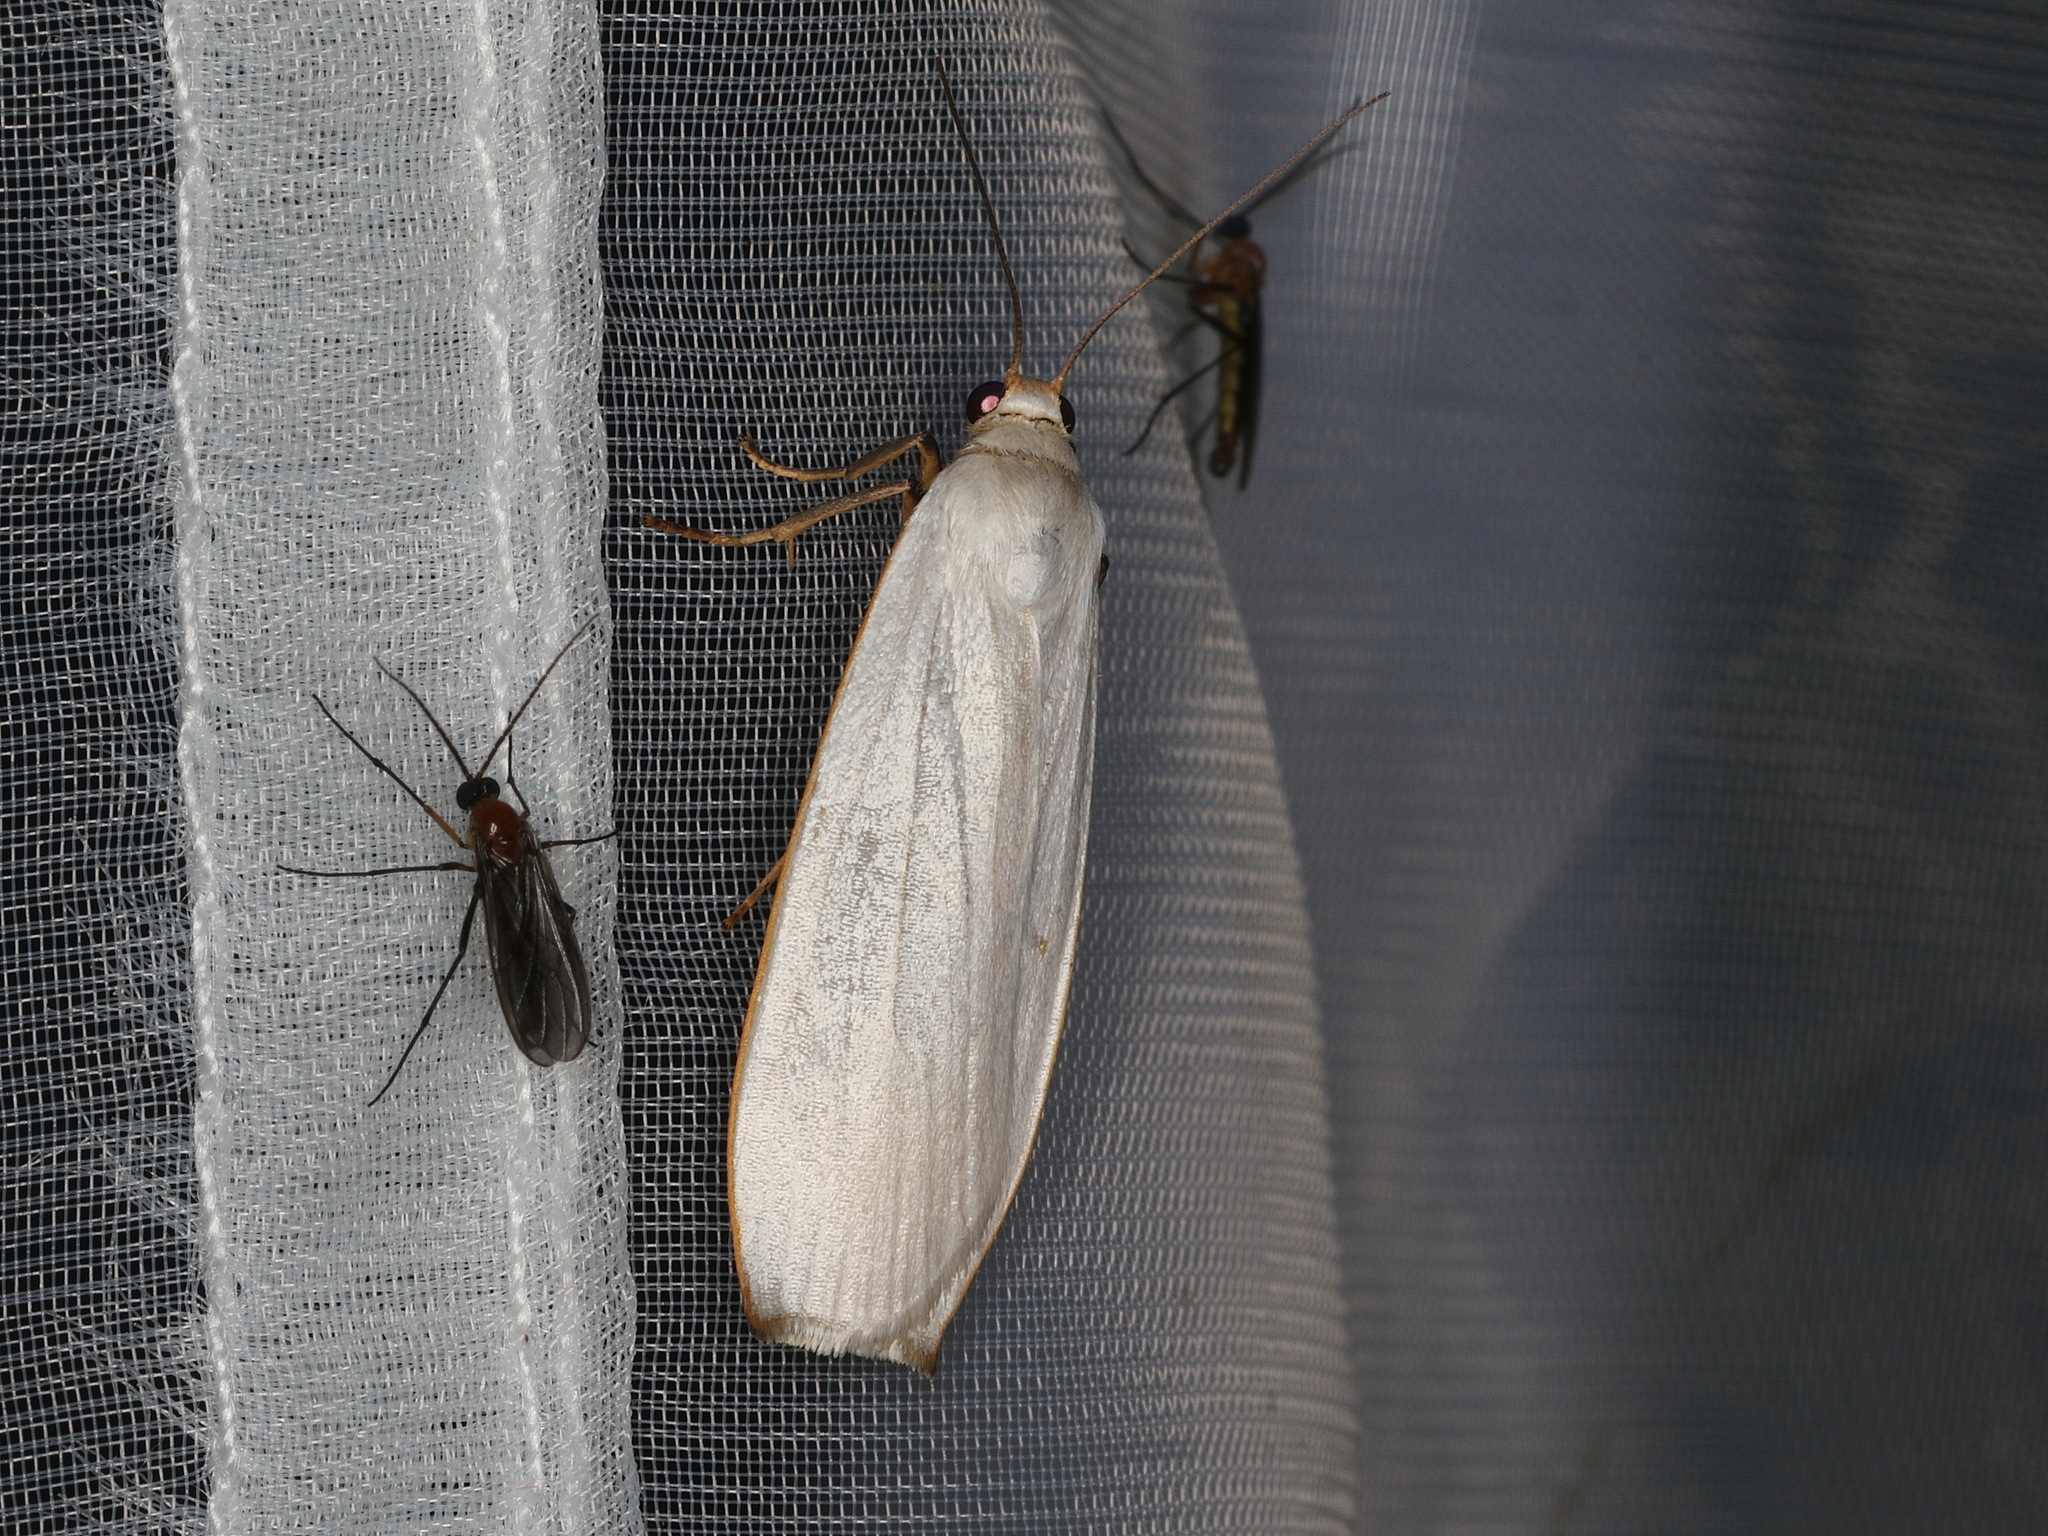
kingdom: Animalia
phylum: Arthropoda
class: Insecta
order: Lepidoptera
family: Erebidae
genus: Hesychopa
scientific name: Hesychopa chionora
